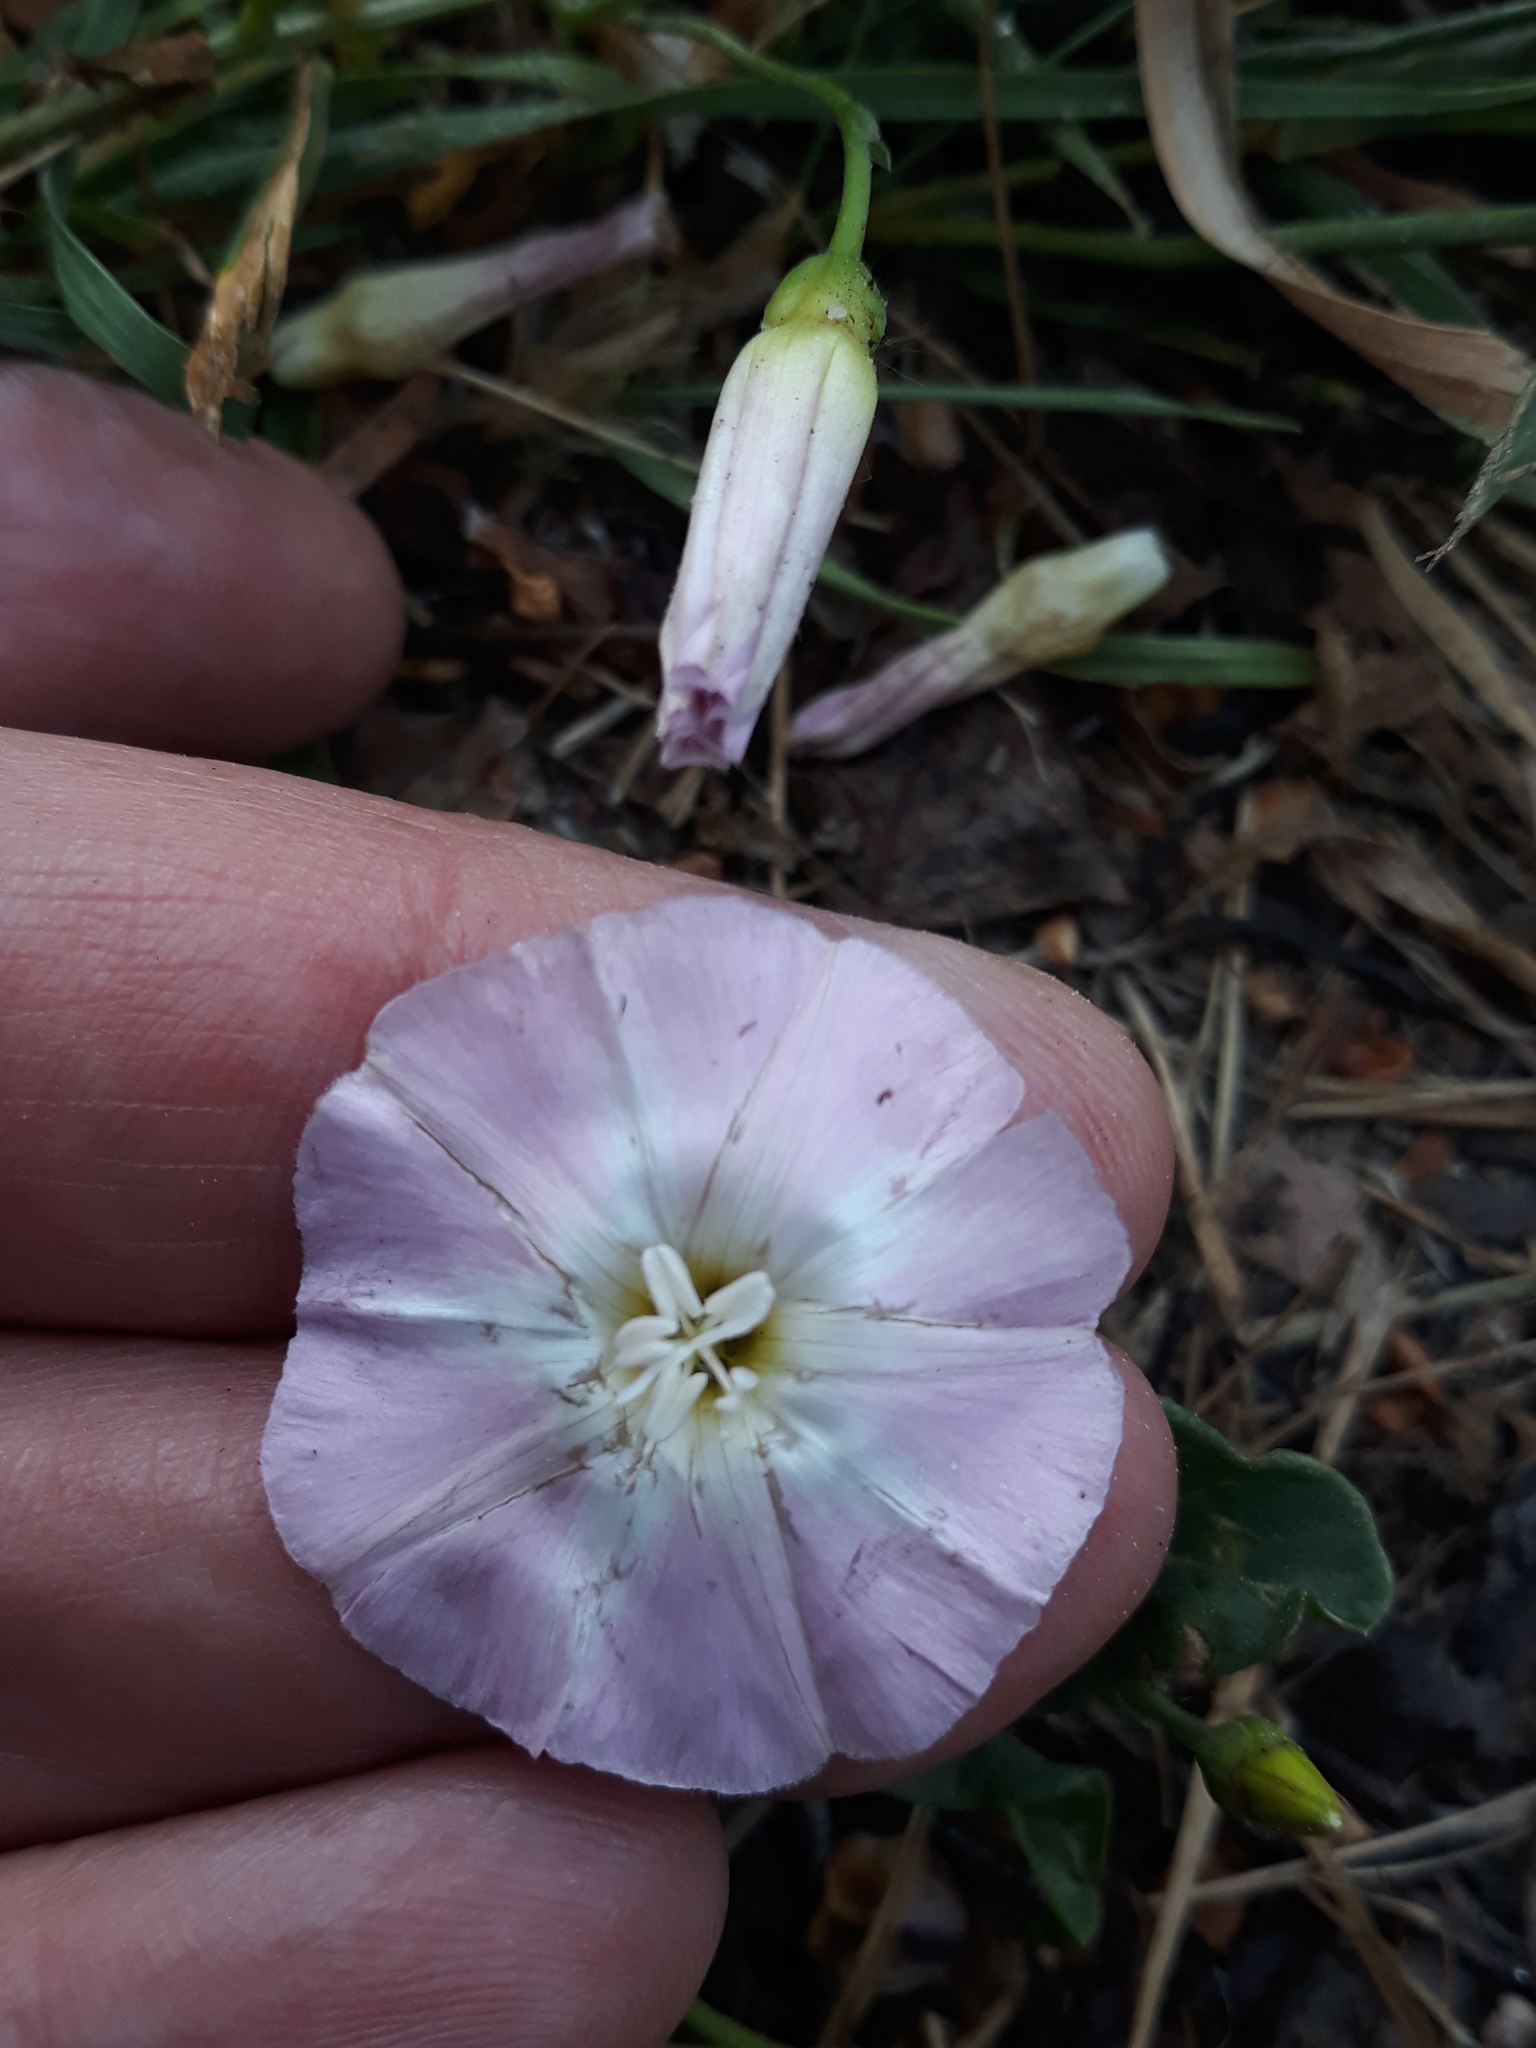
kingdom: Plantae
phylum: Tracheophyta
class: Magnoliopsida
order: Solanales
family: Convolvulaceae
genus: Convolvulus
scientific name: Convolvulus arvensis
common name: Field bindweed
